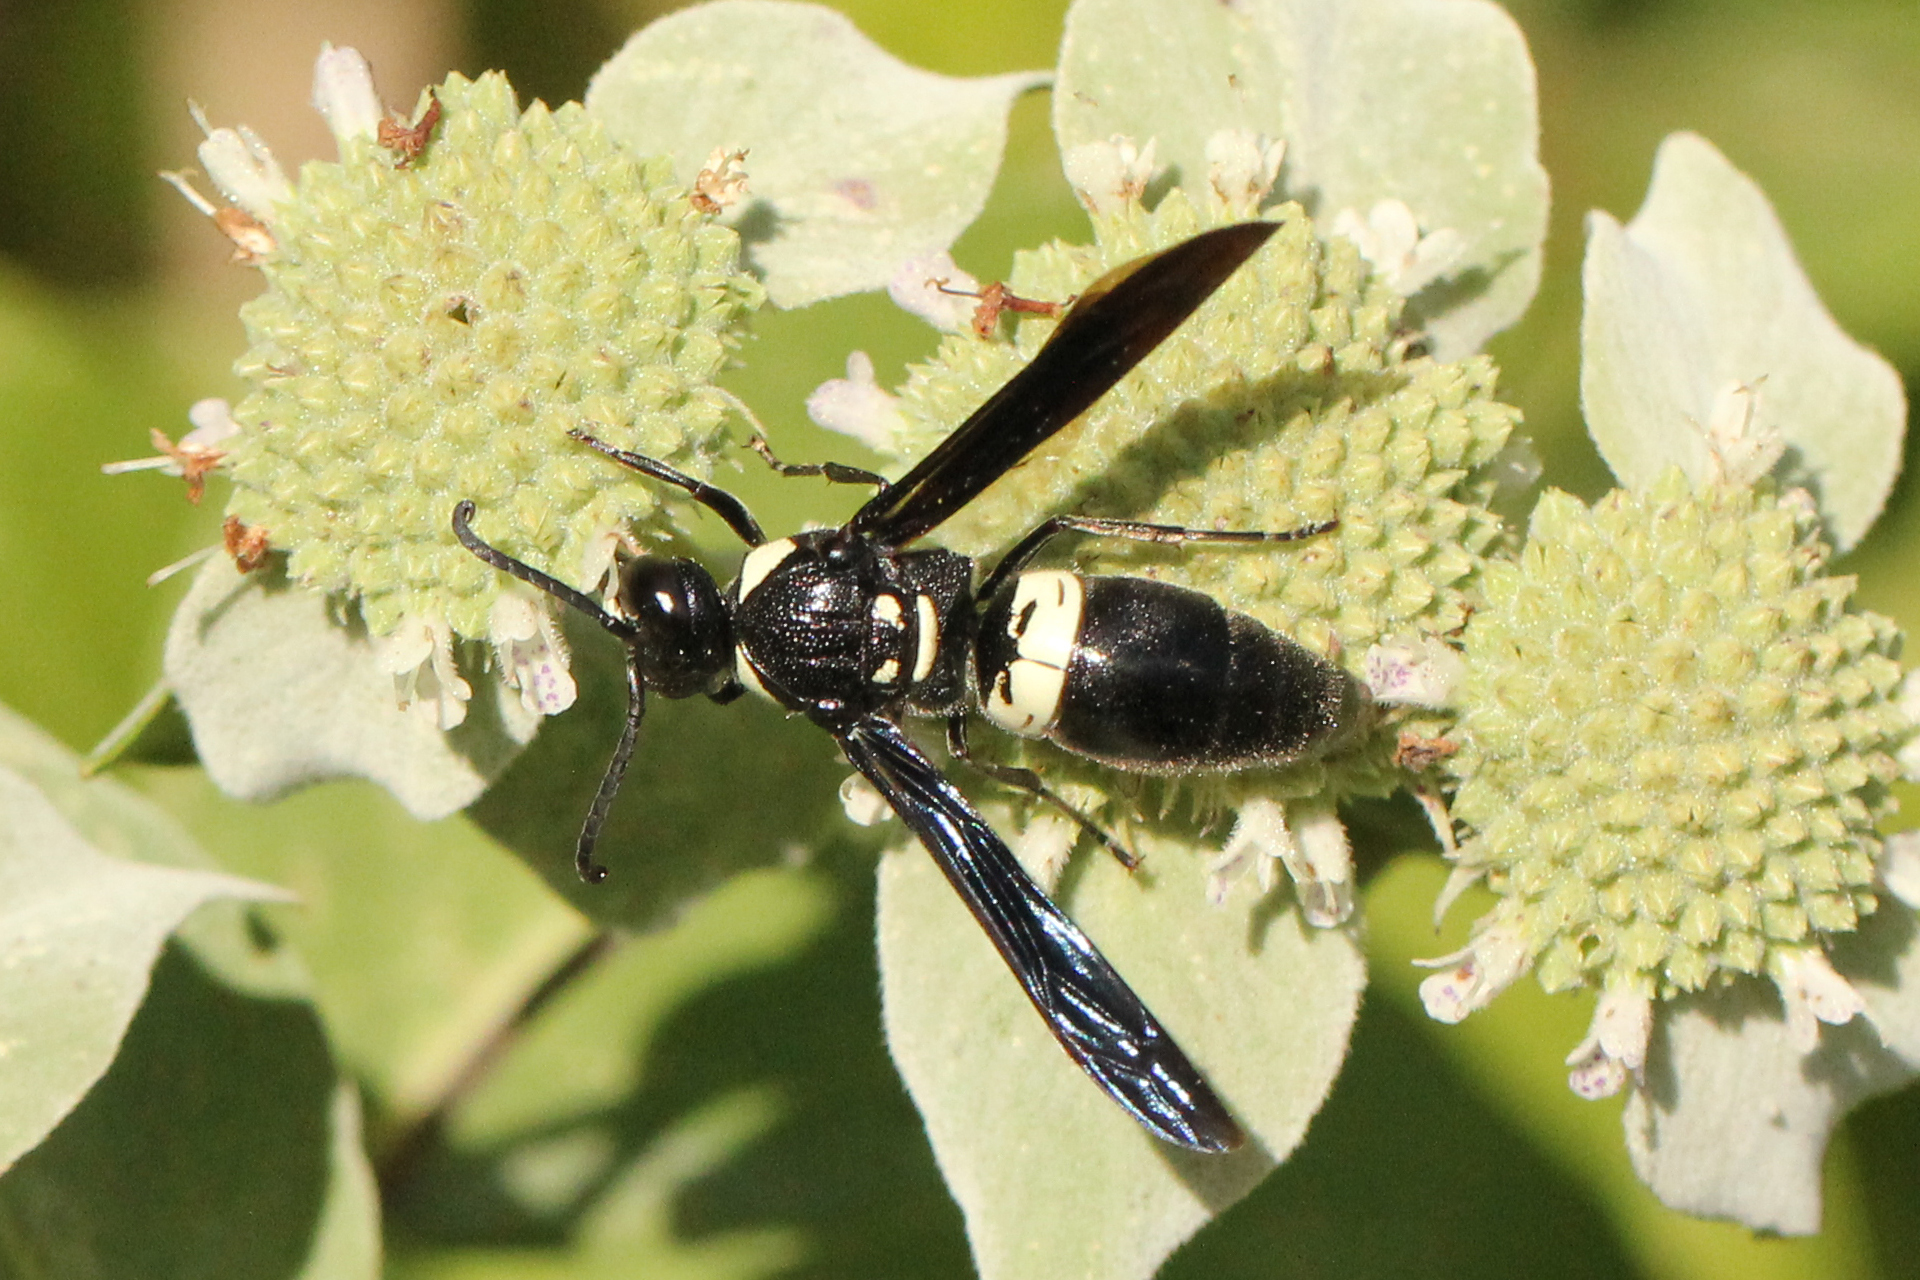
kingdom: Animalia
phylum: Arthropoda
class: Insecta
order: Hymenoptera
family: Eumenidae
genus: Monobia
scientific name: Monobia quadridens
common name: Four-toothed mason wasp
